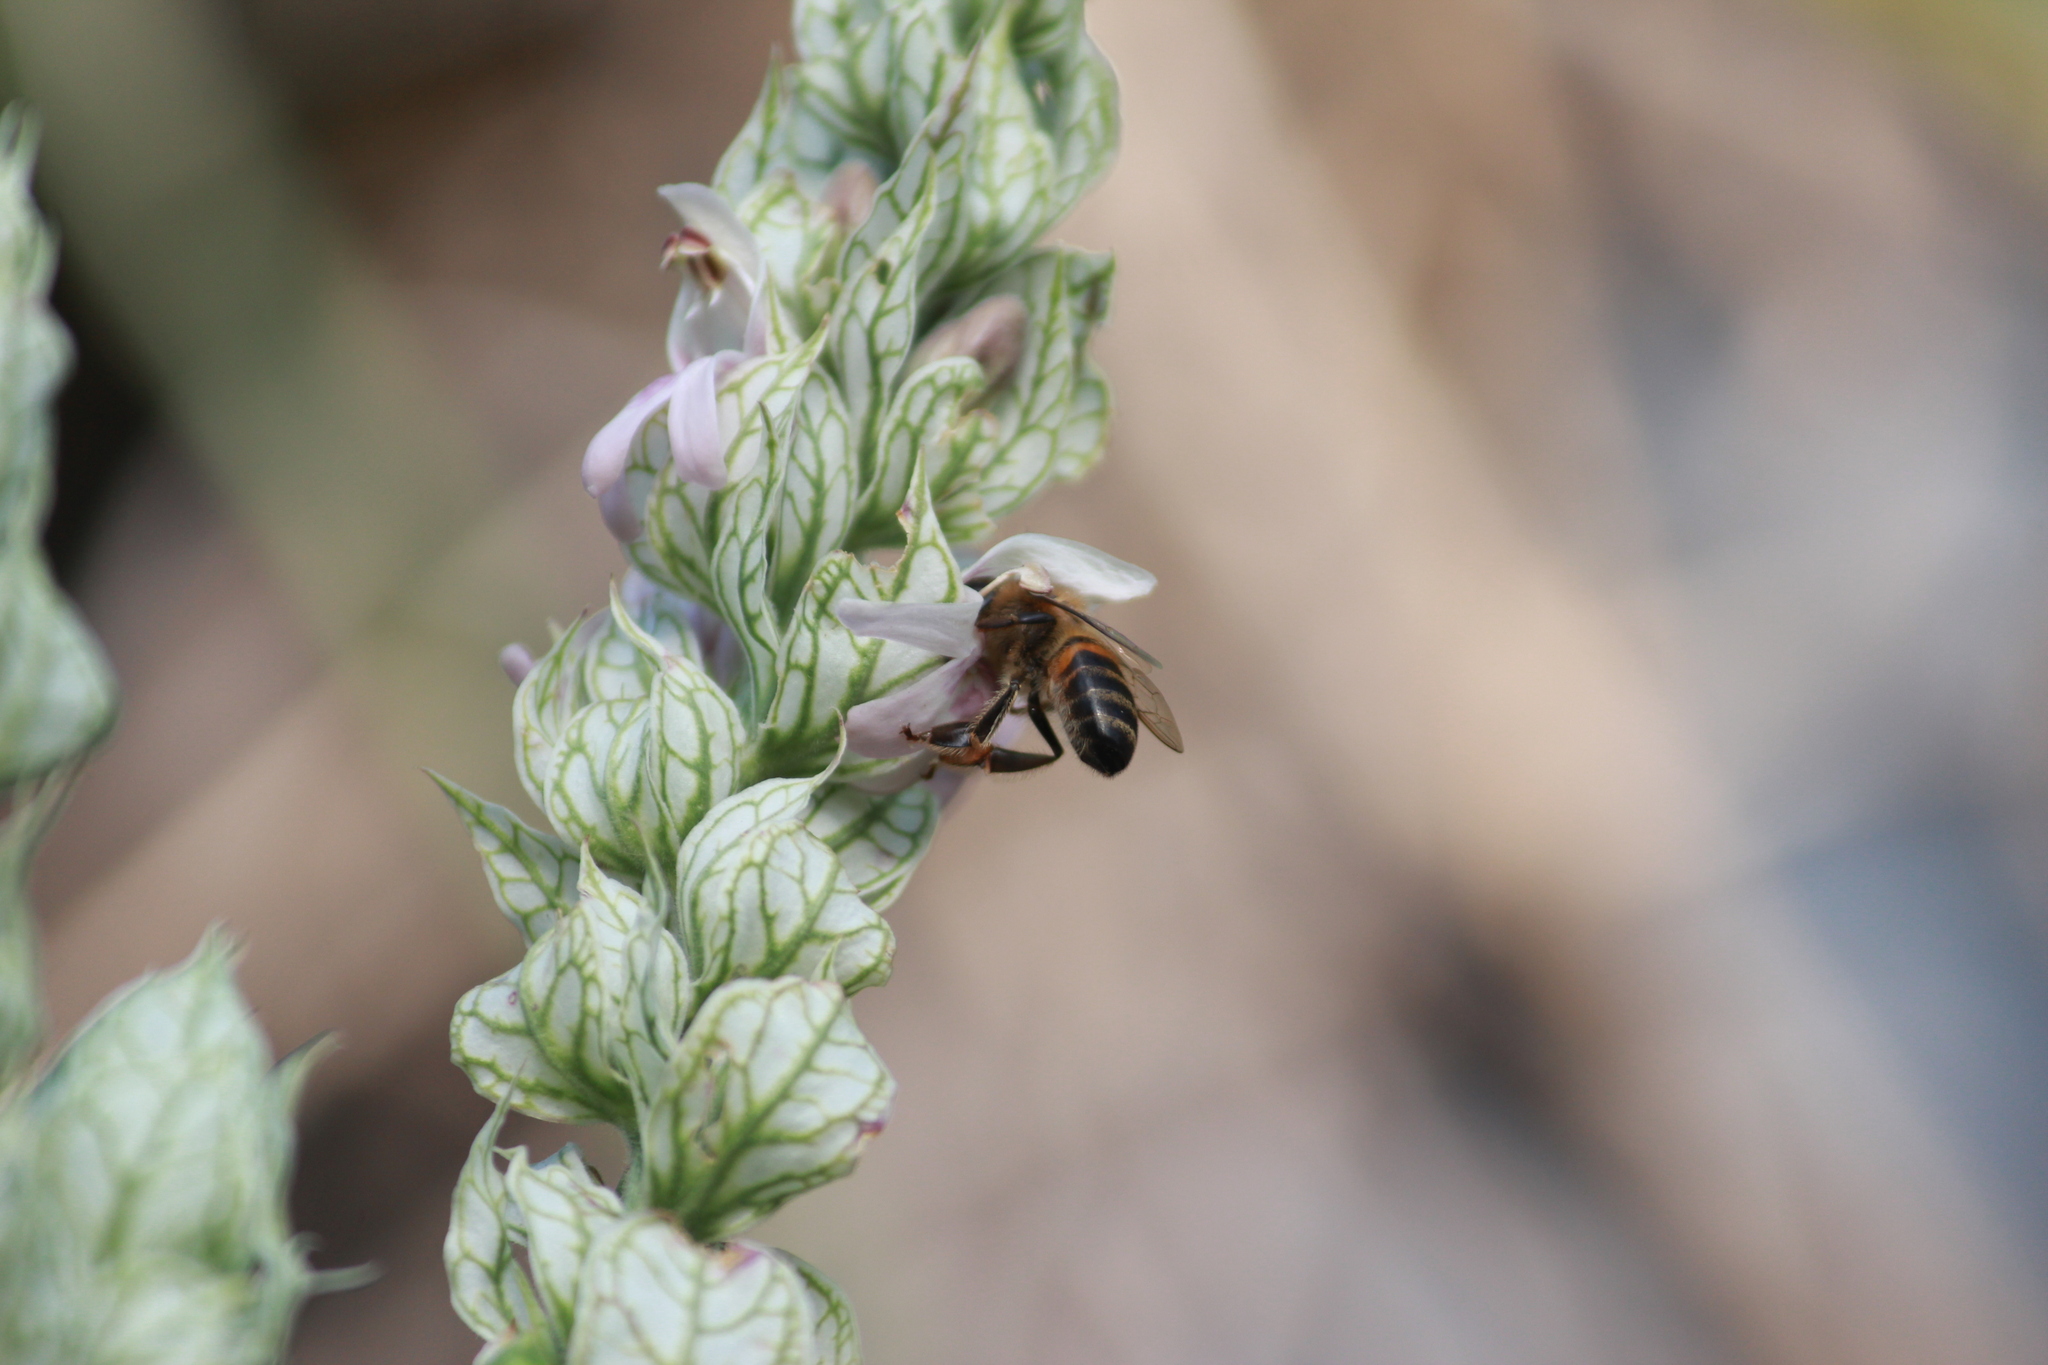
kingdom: Animalia
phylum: Arthropoda
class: Insecta
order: Hymenoptera
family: Apidae
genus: Apis
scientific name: Apis mellifera
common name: Honey bee
